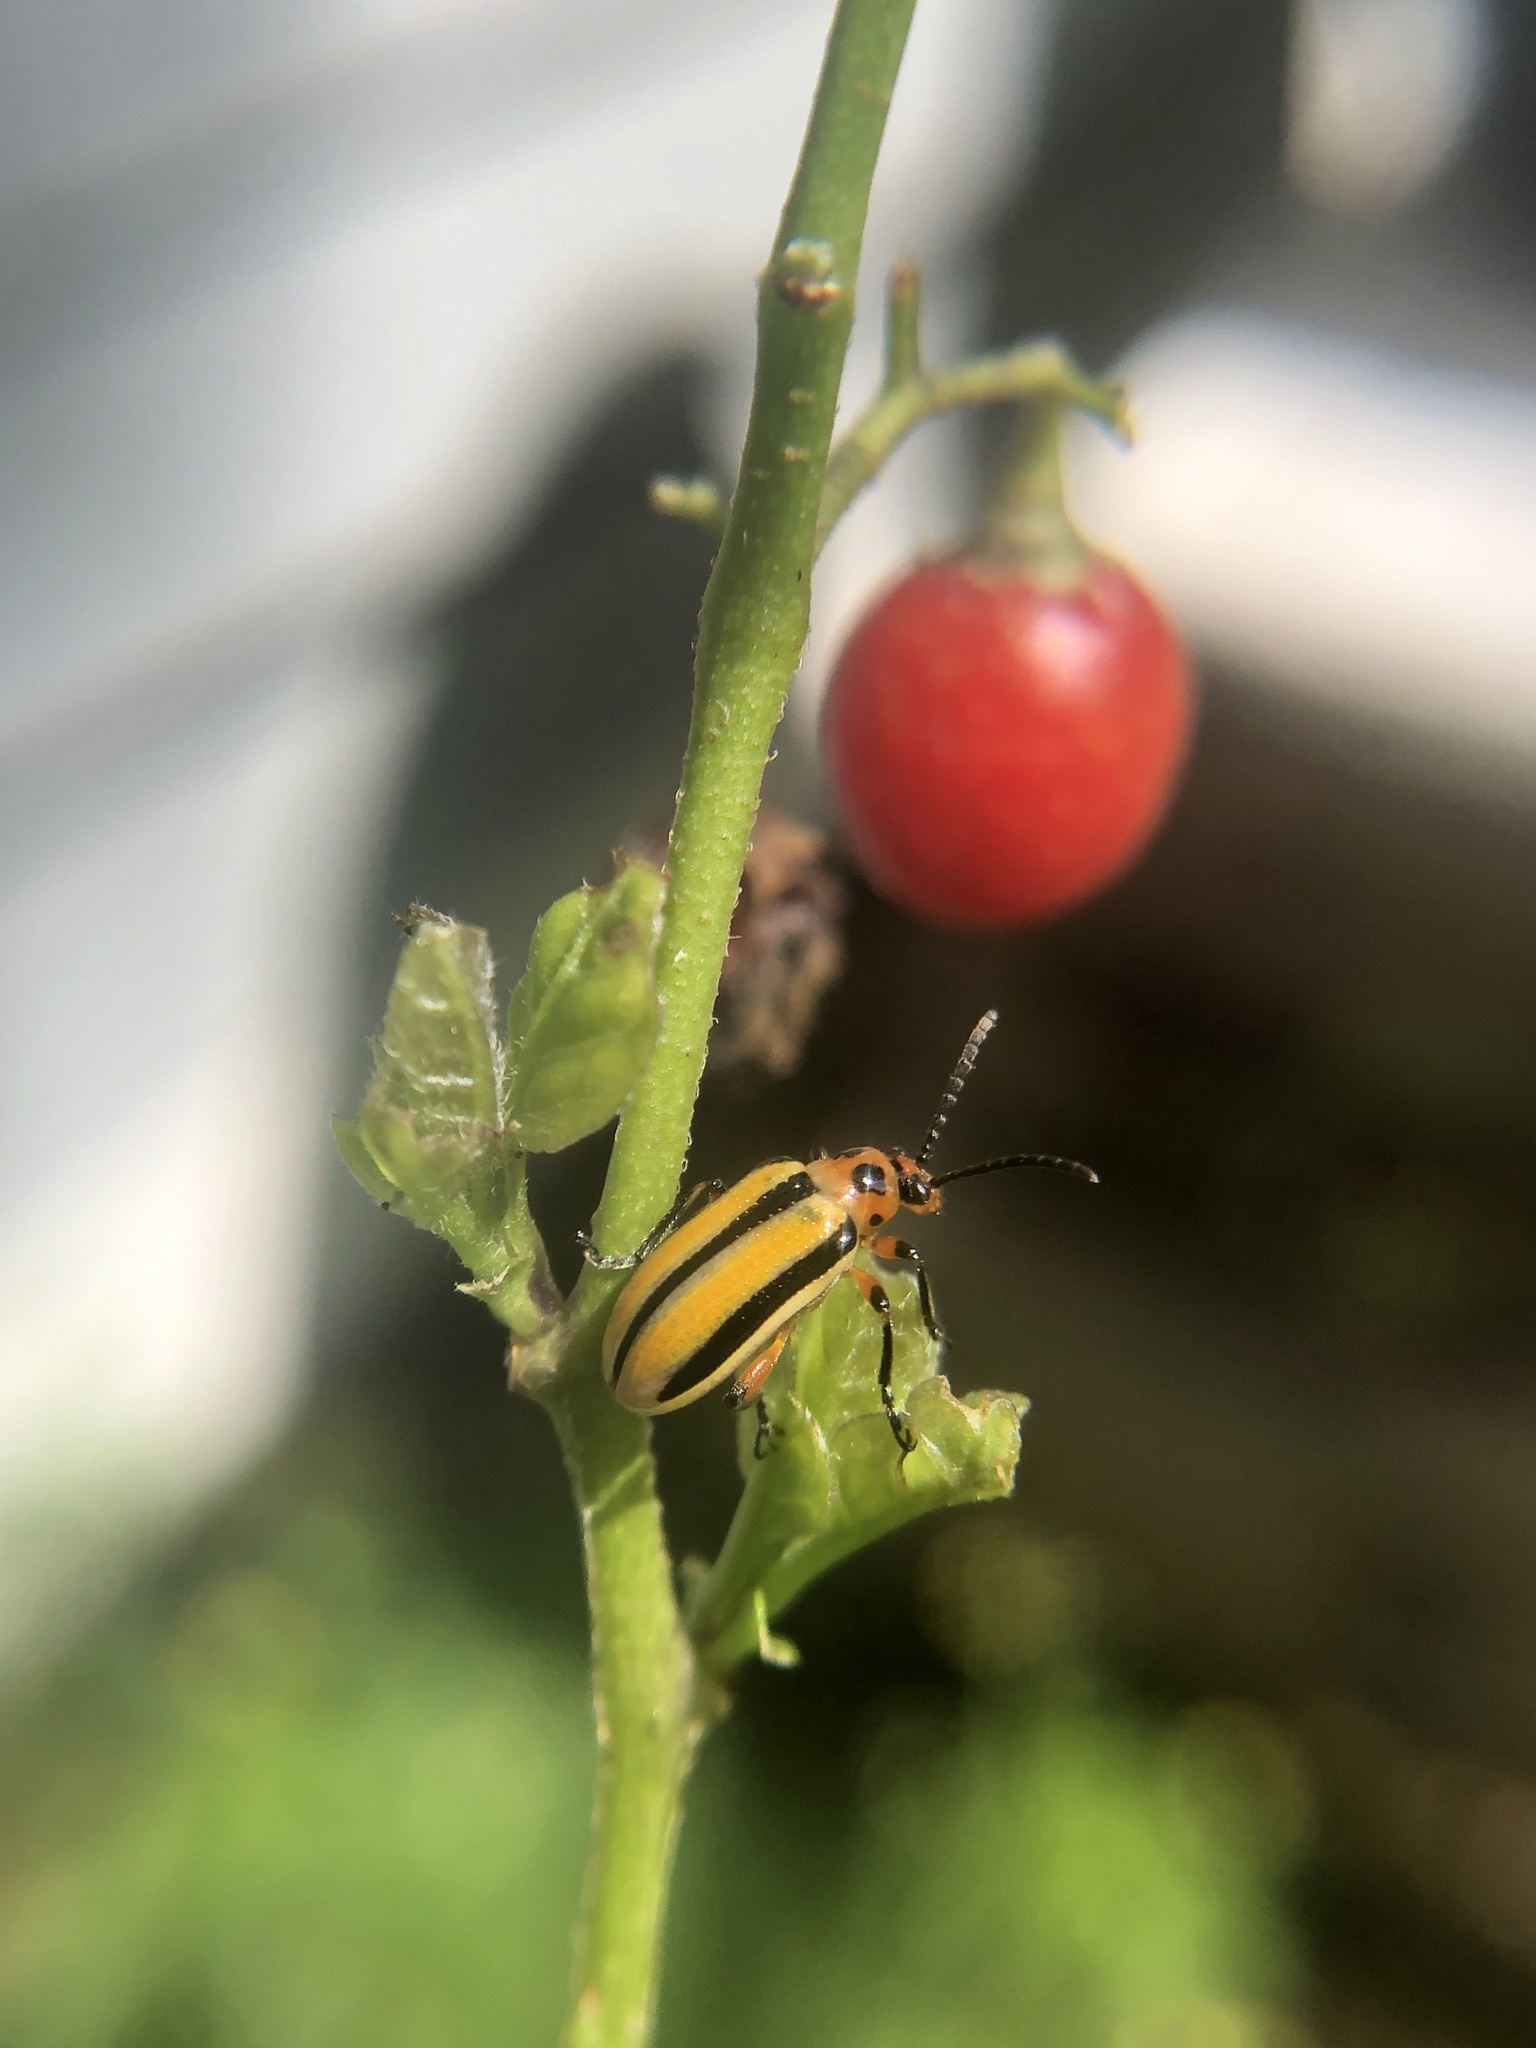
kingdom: Animalia
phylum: Arthropoda
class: Insecta
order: Coleoptera
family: Chrysomelidae
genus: Lema
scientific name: Lema daturaphila
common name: Leaf beetle
